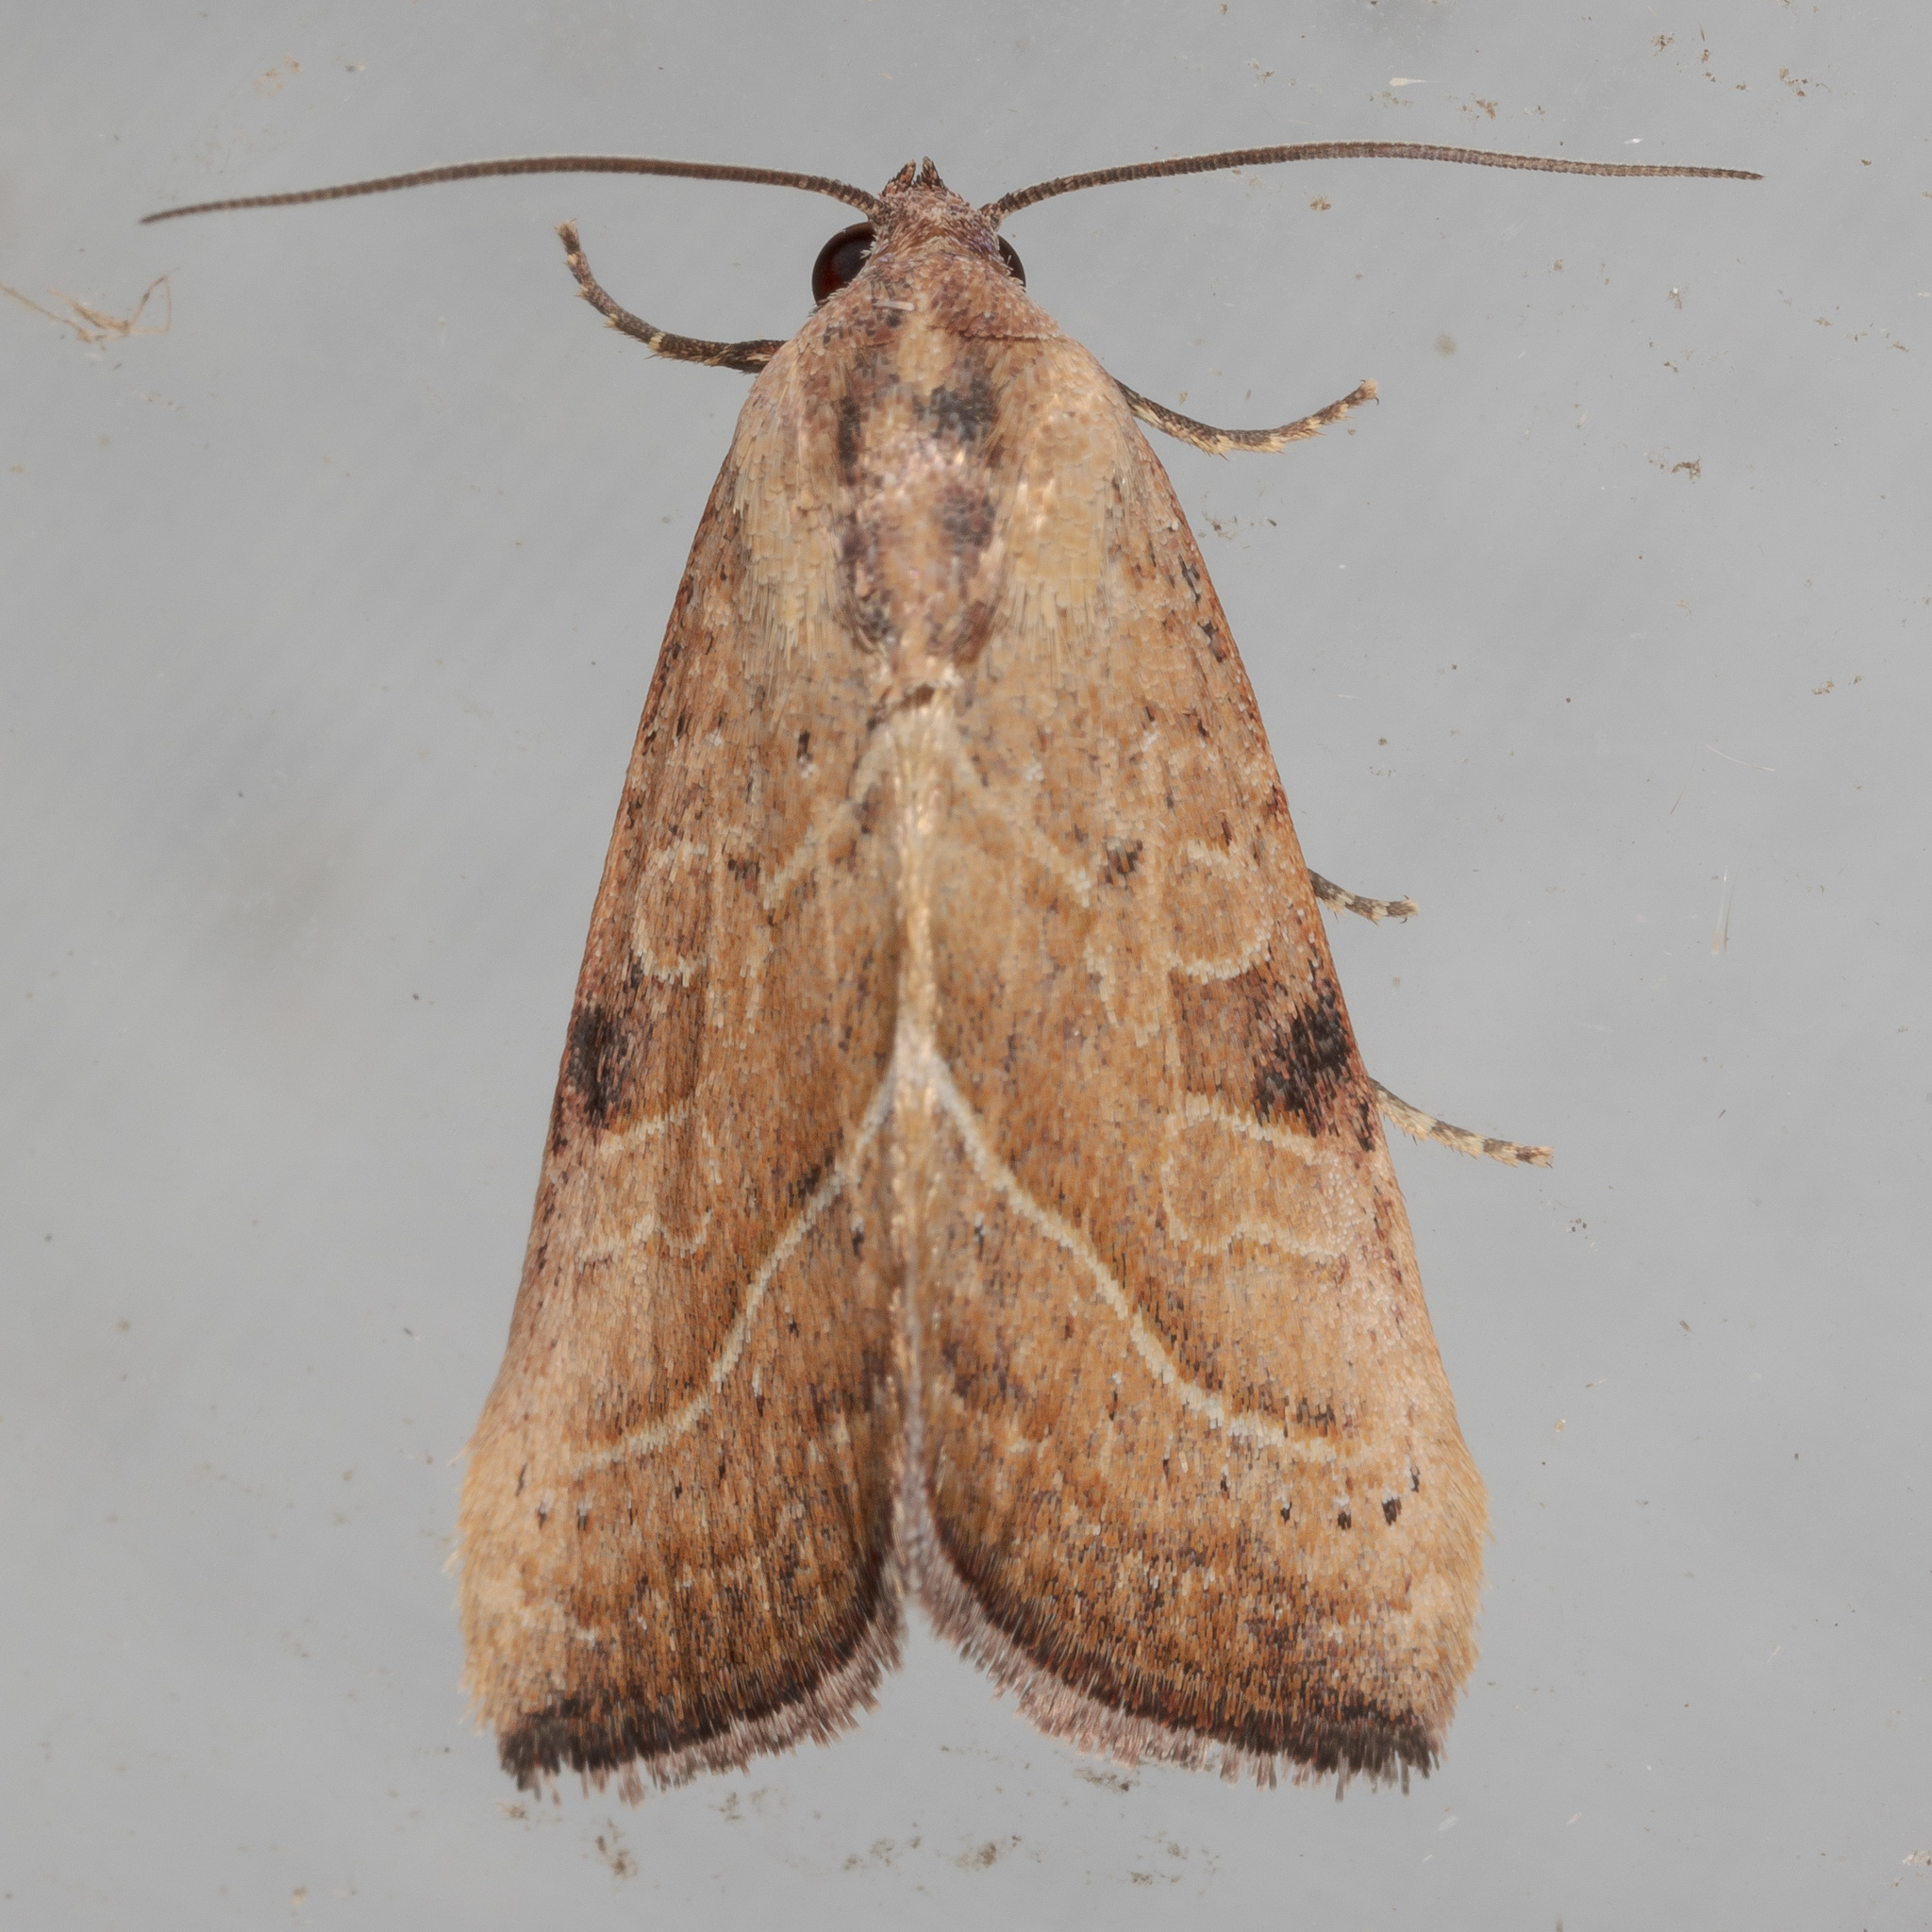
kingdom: Animalia
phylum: Arthropoda
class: Insecta
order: Lepidoptera
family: Noctuidae
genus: Galgula
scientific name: Galgula partita
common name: Wedgeling
